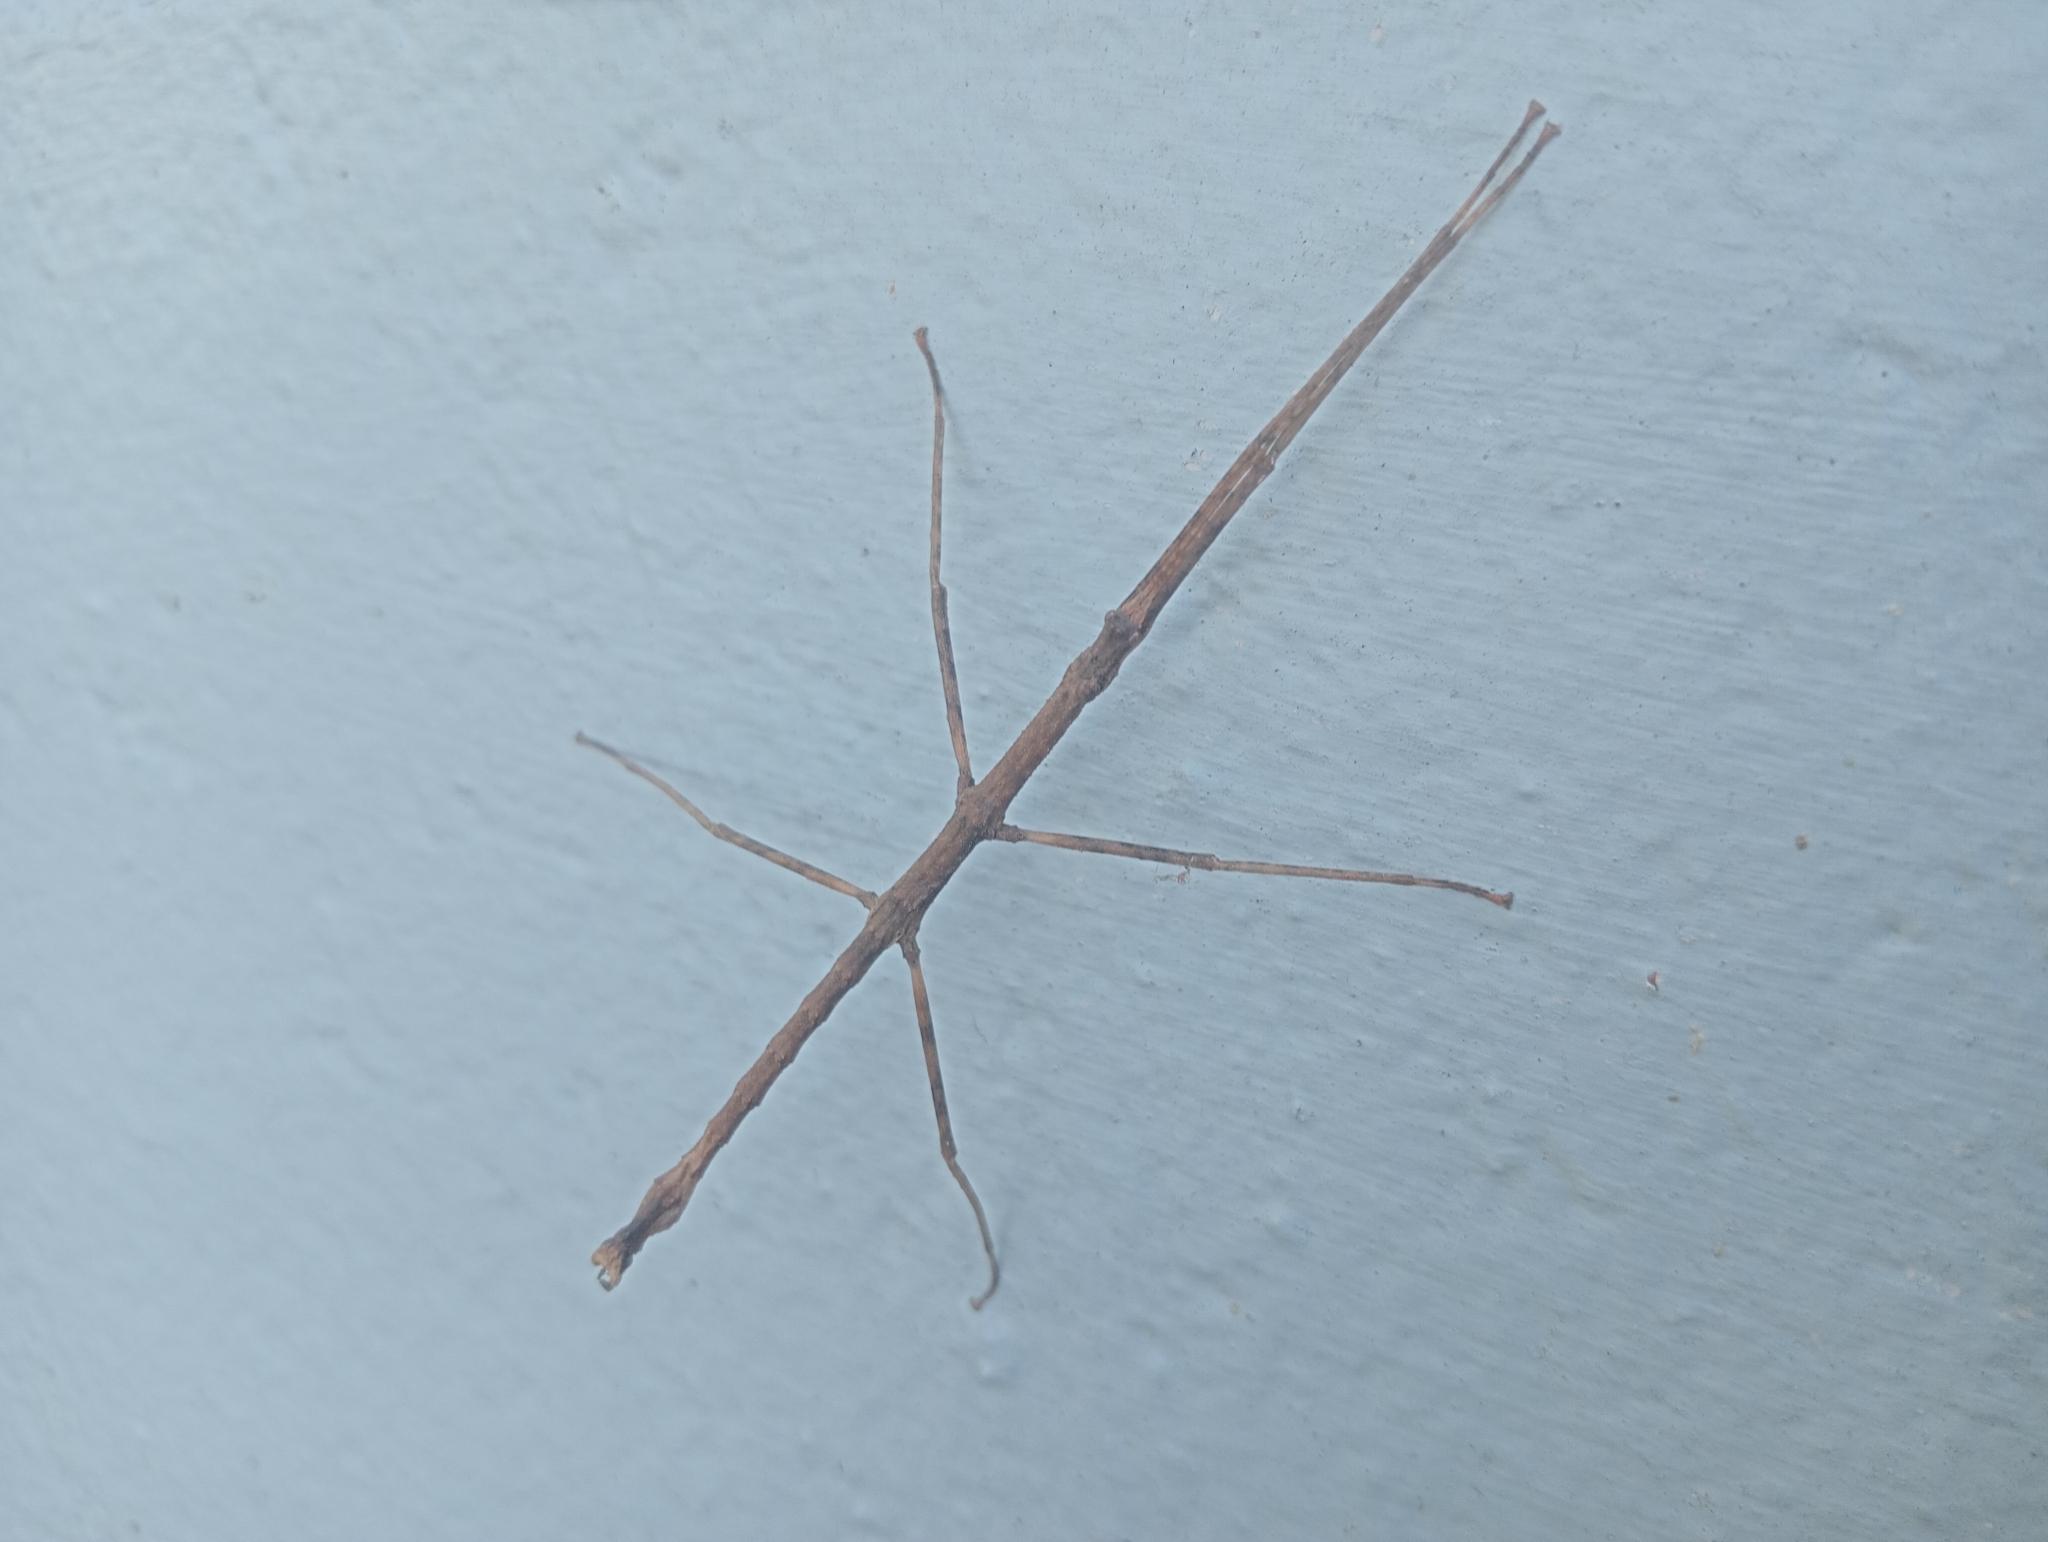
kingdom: Animalia
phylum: Arthropoda
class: Insecta
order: Phasmida
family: Phasmatidae
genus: Niveaphasma
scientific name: Niveaphasma annulatum
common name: Hutton's stick insect
